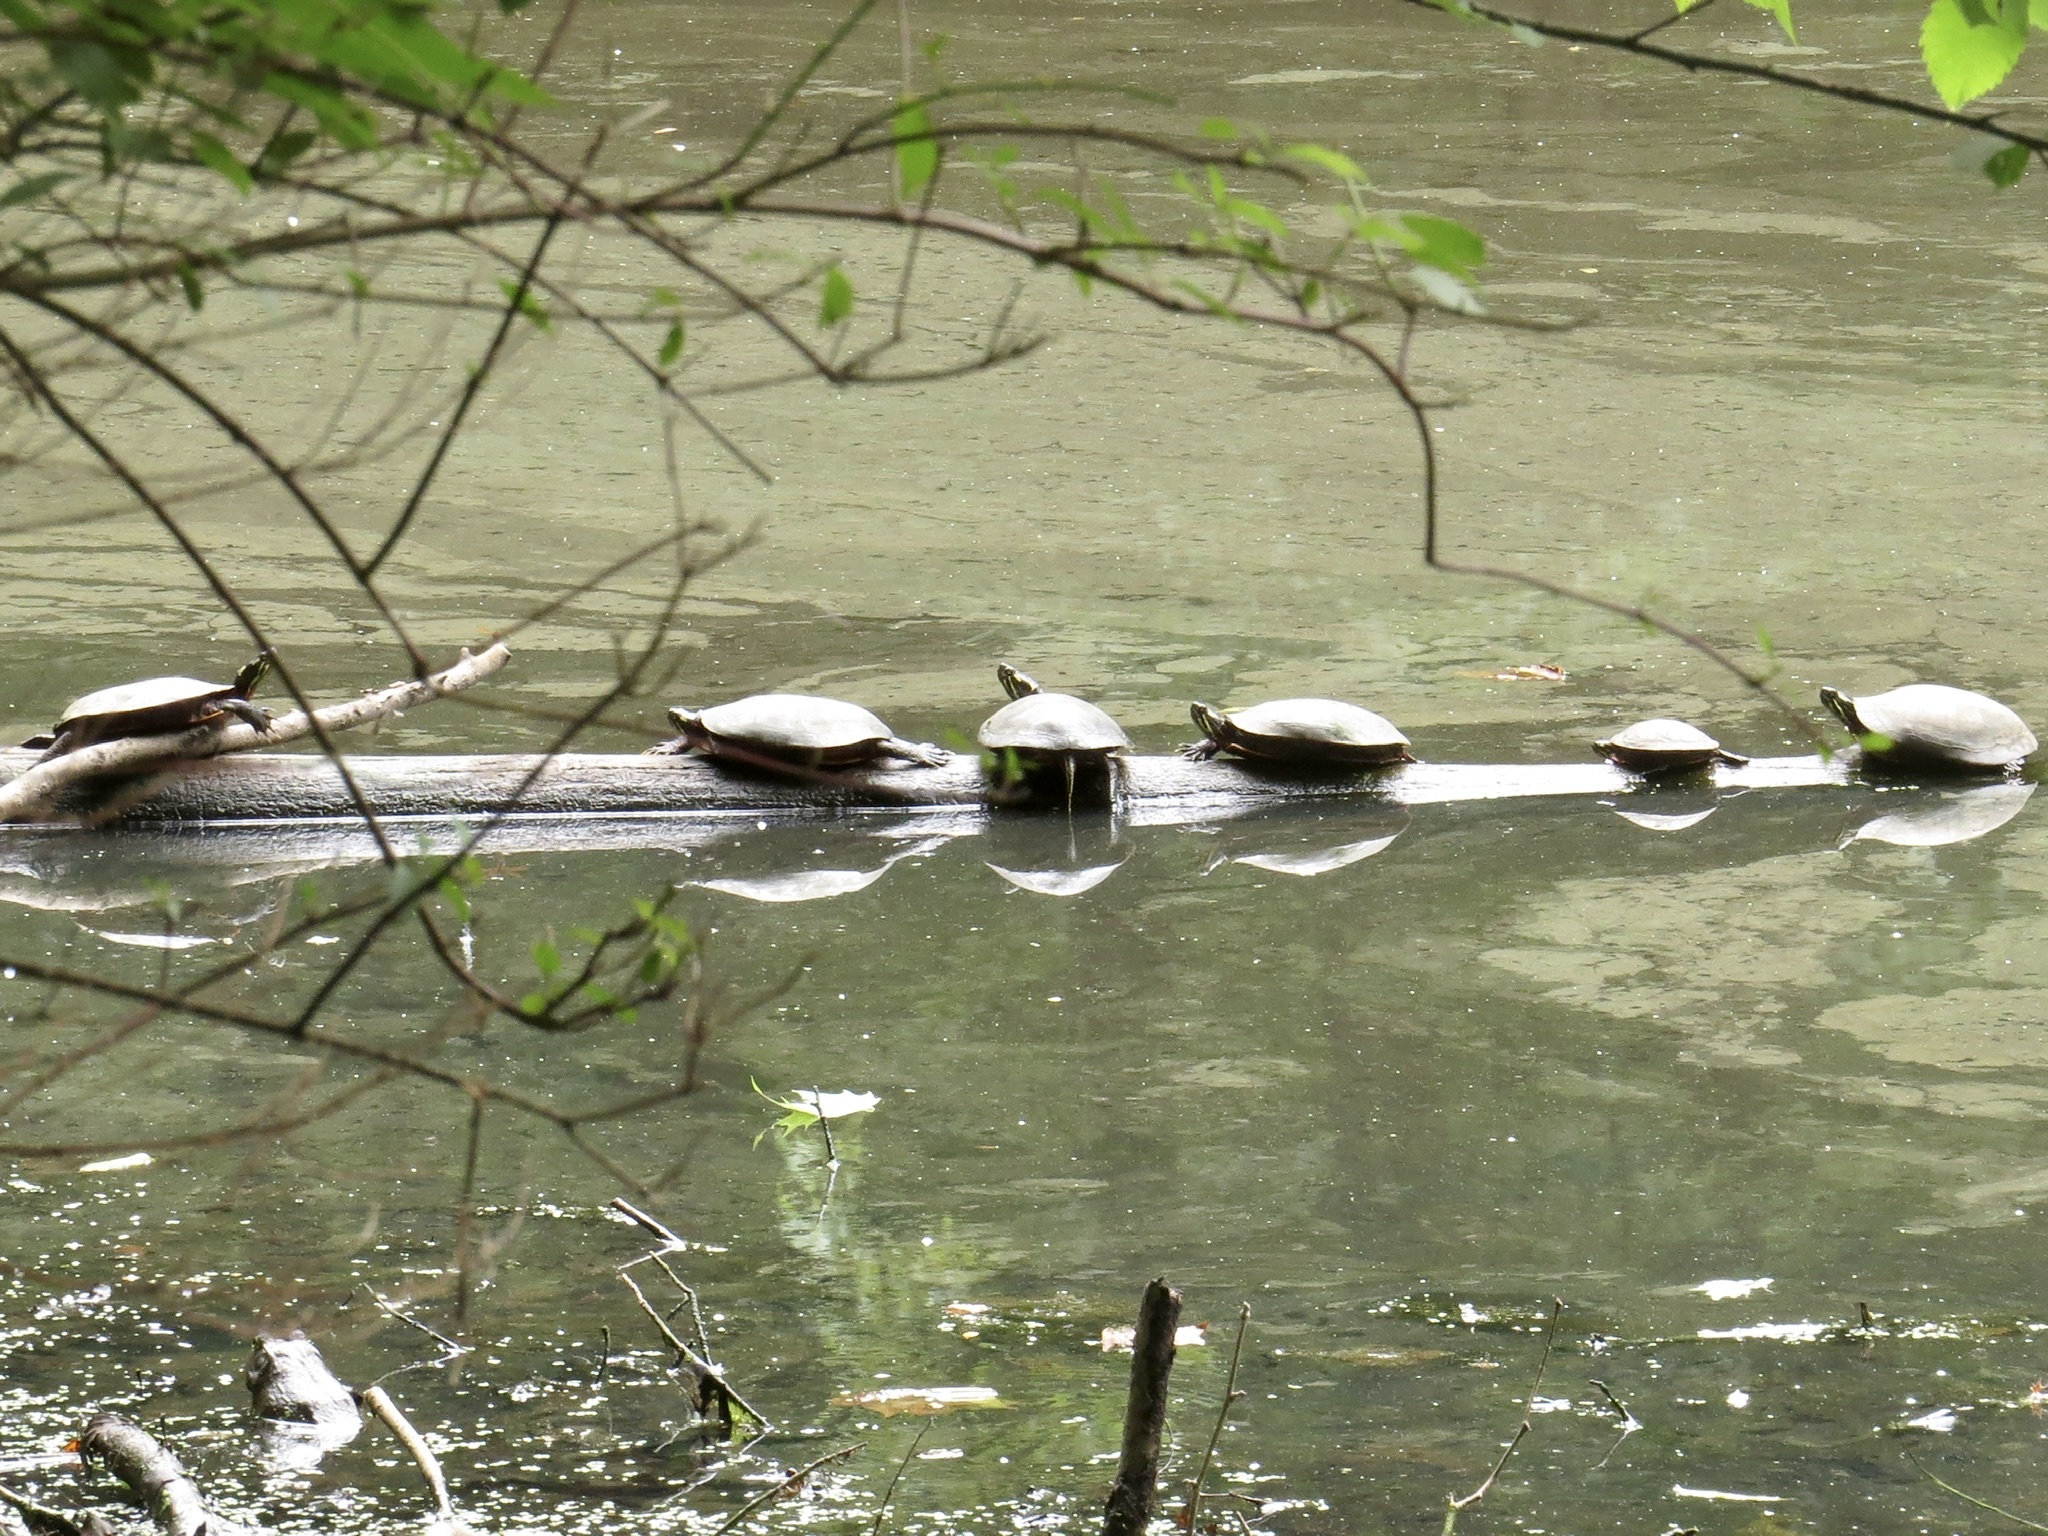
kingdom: Animalia
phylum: Chordata
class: Testudines
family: Emydidae
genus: Chrysemys
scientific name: Chrysemys picta
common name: Painted turtle
